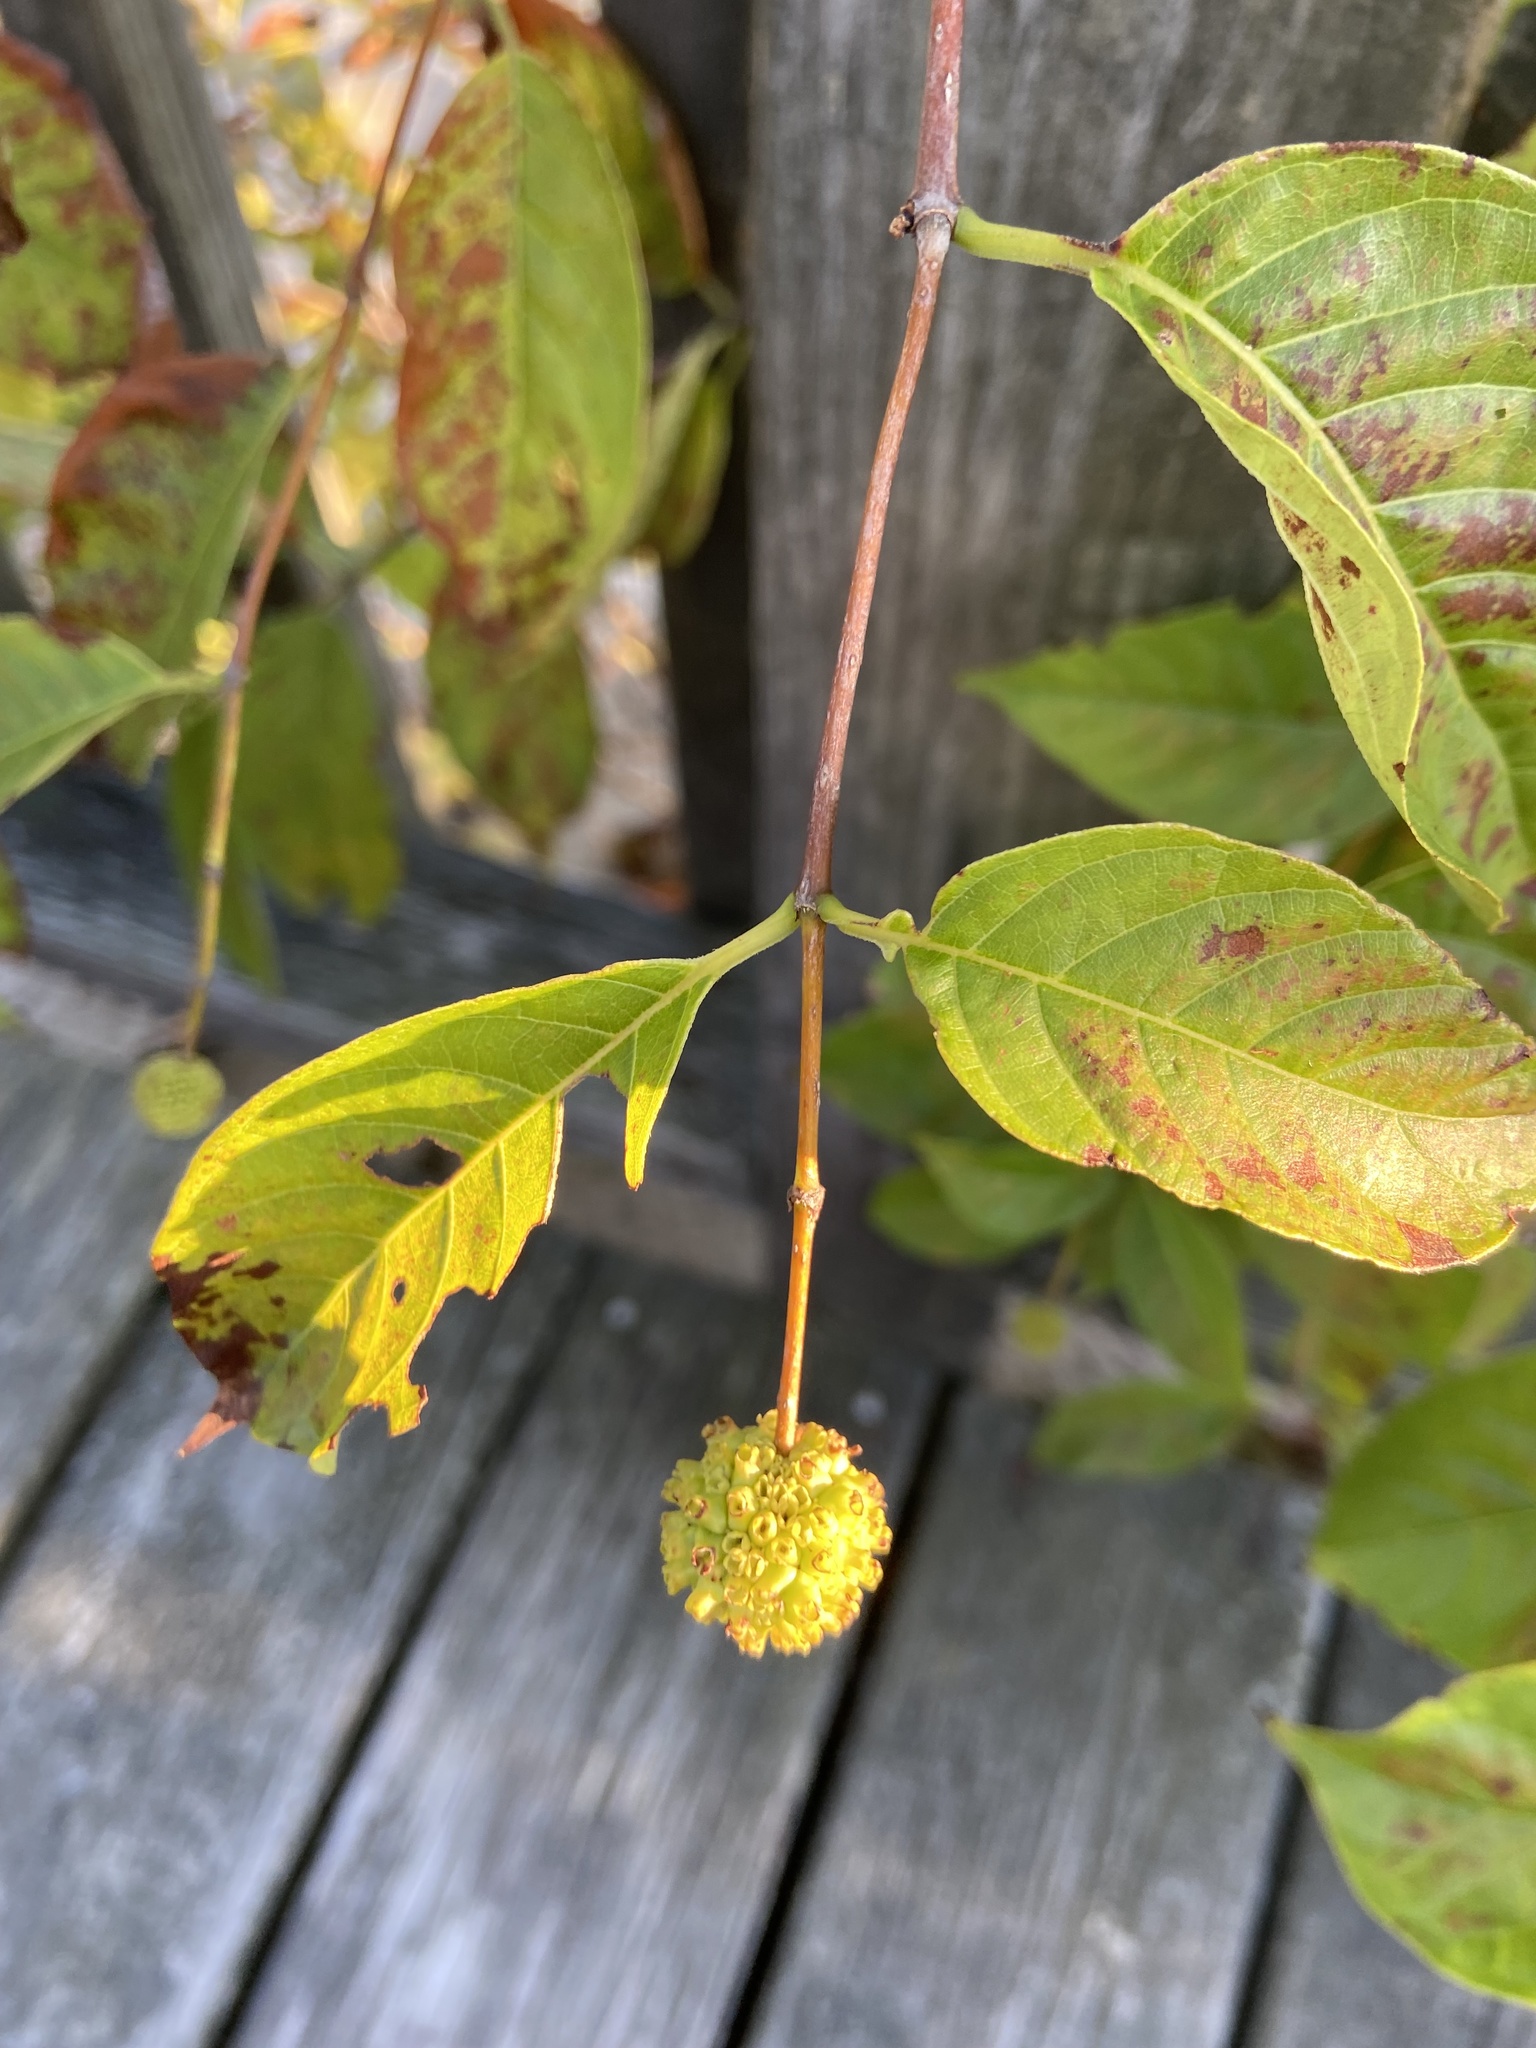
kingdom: Plantae
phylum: Tracheophyta
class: Magnoliopsida
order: Gentianales
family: Rubiaceae
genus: Cephalanthus
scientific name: Cephalanthus occidentalis
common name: Button-willow
